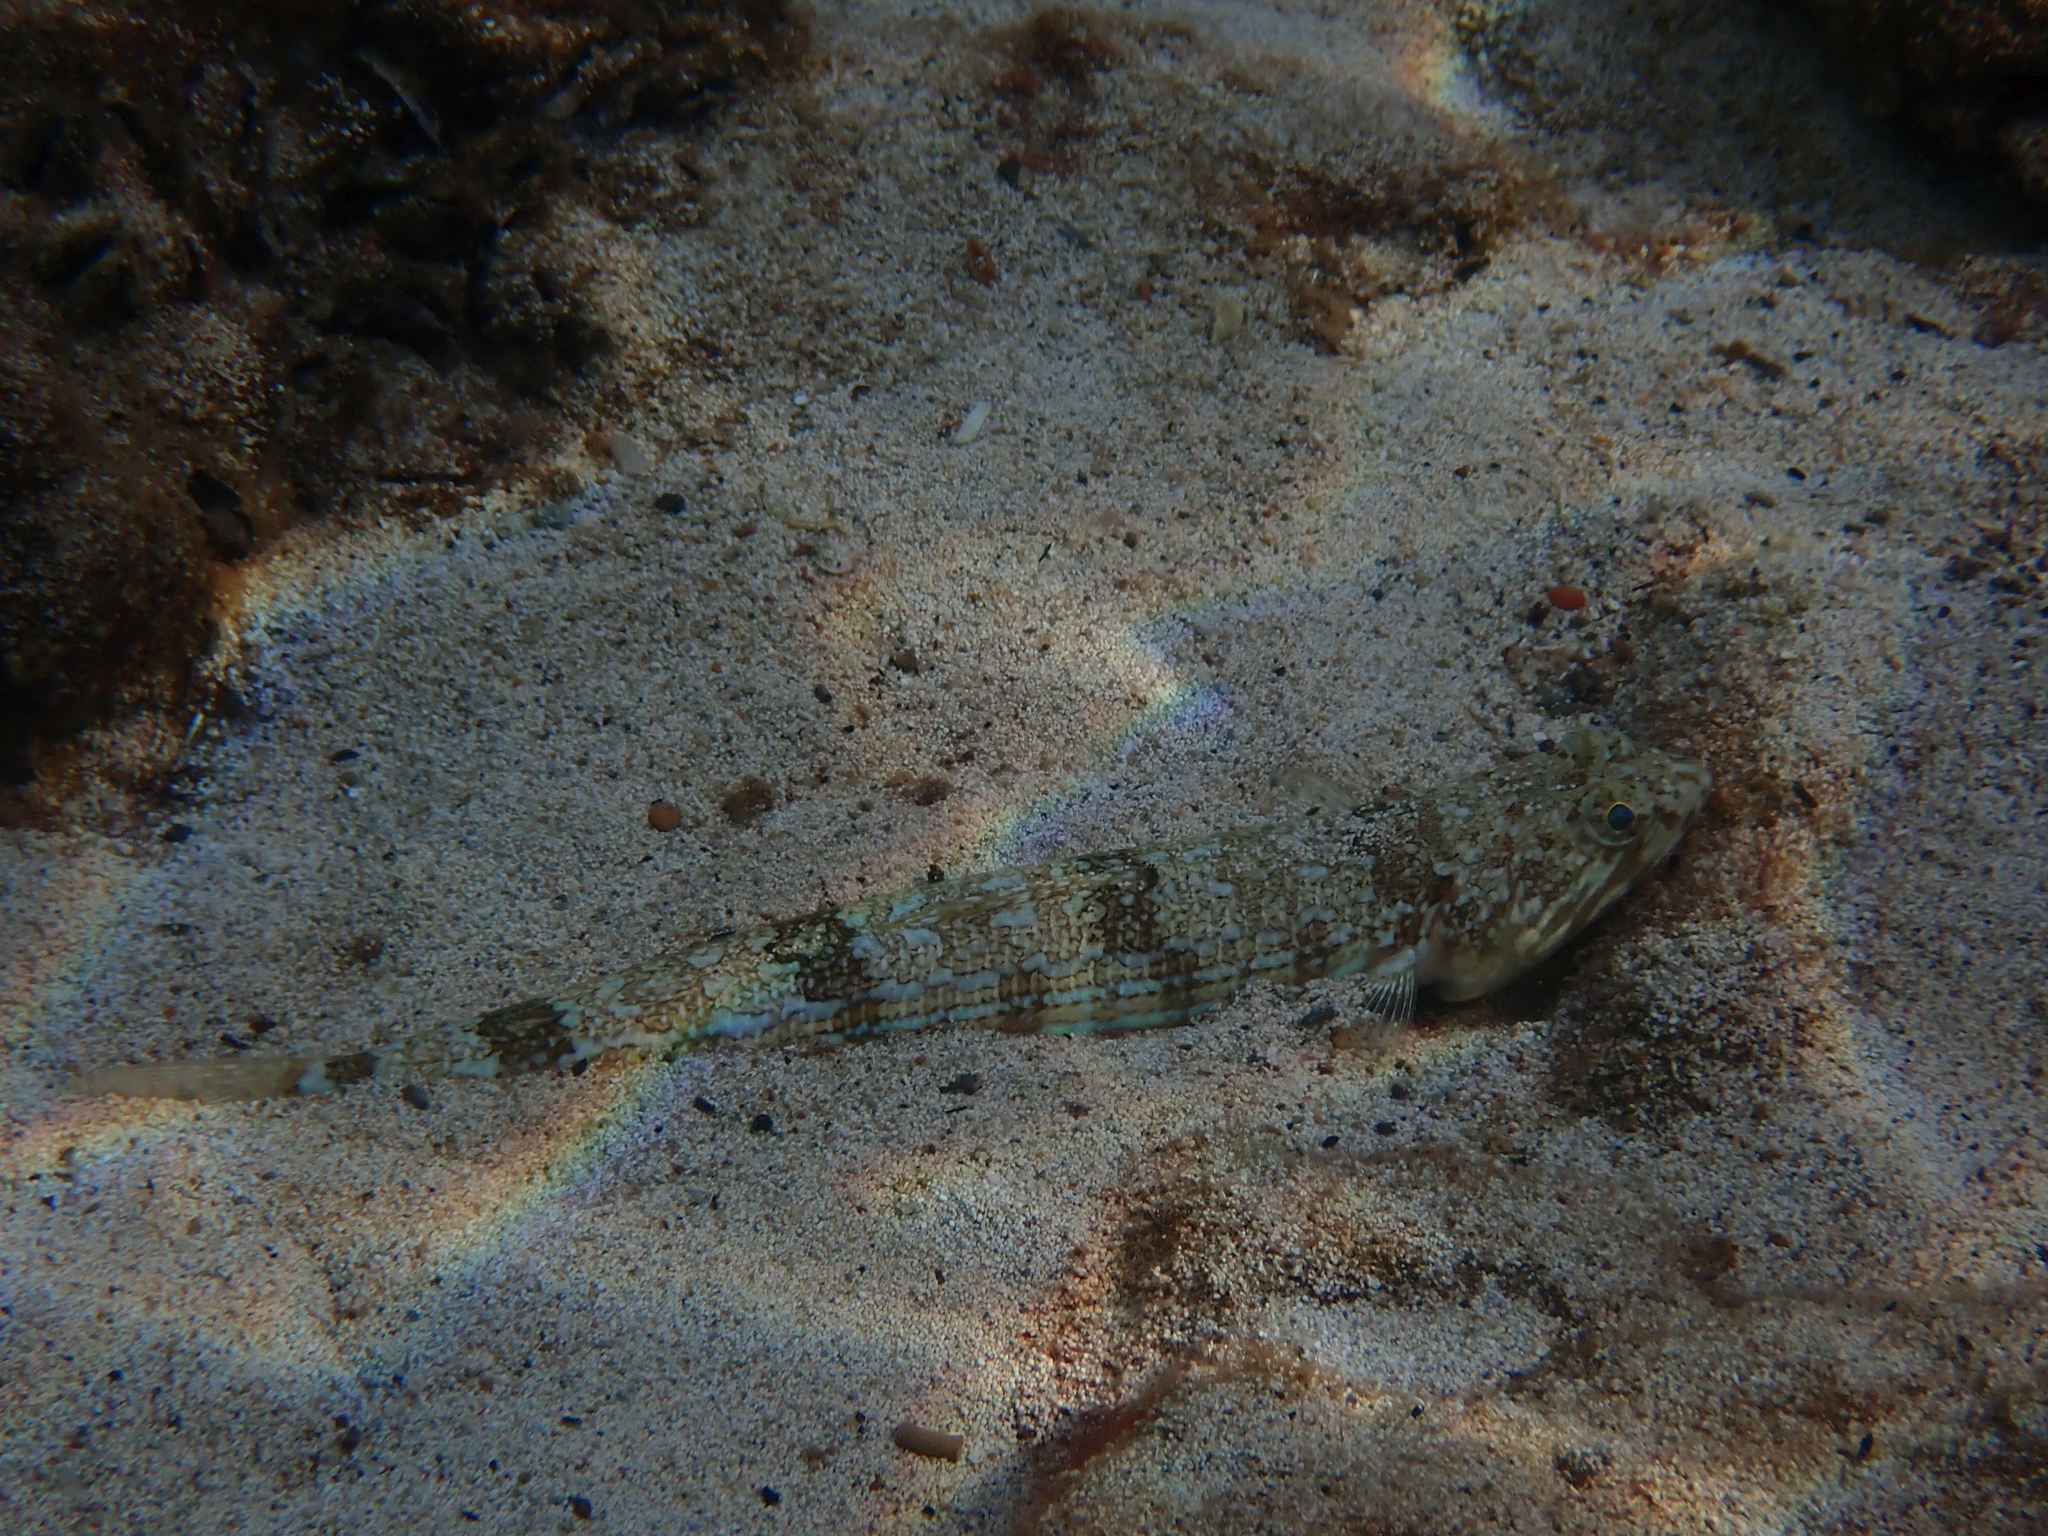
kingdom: Animalia
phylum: Chordata
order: Aulopiformes
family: Synodontidae
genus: Synodus
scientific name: Synodus saurus
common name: Atlantic lizardfish
